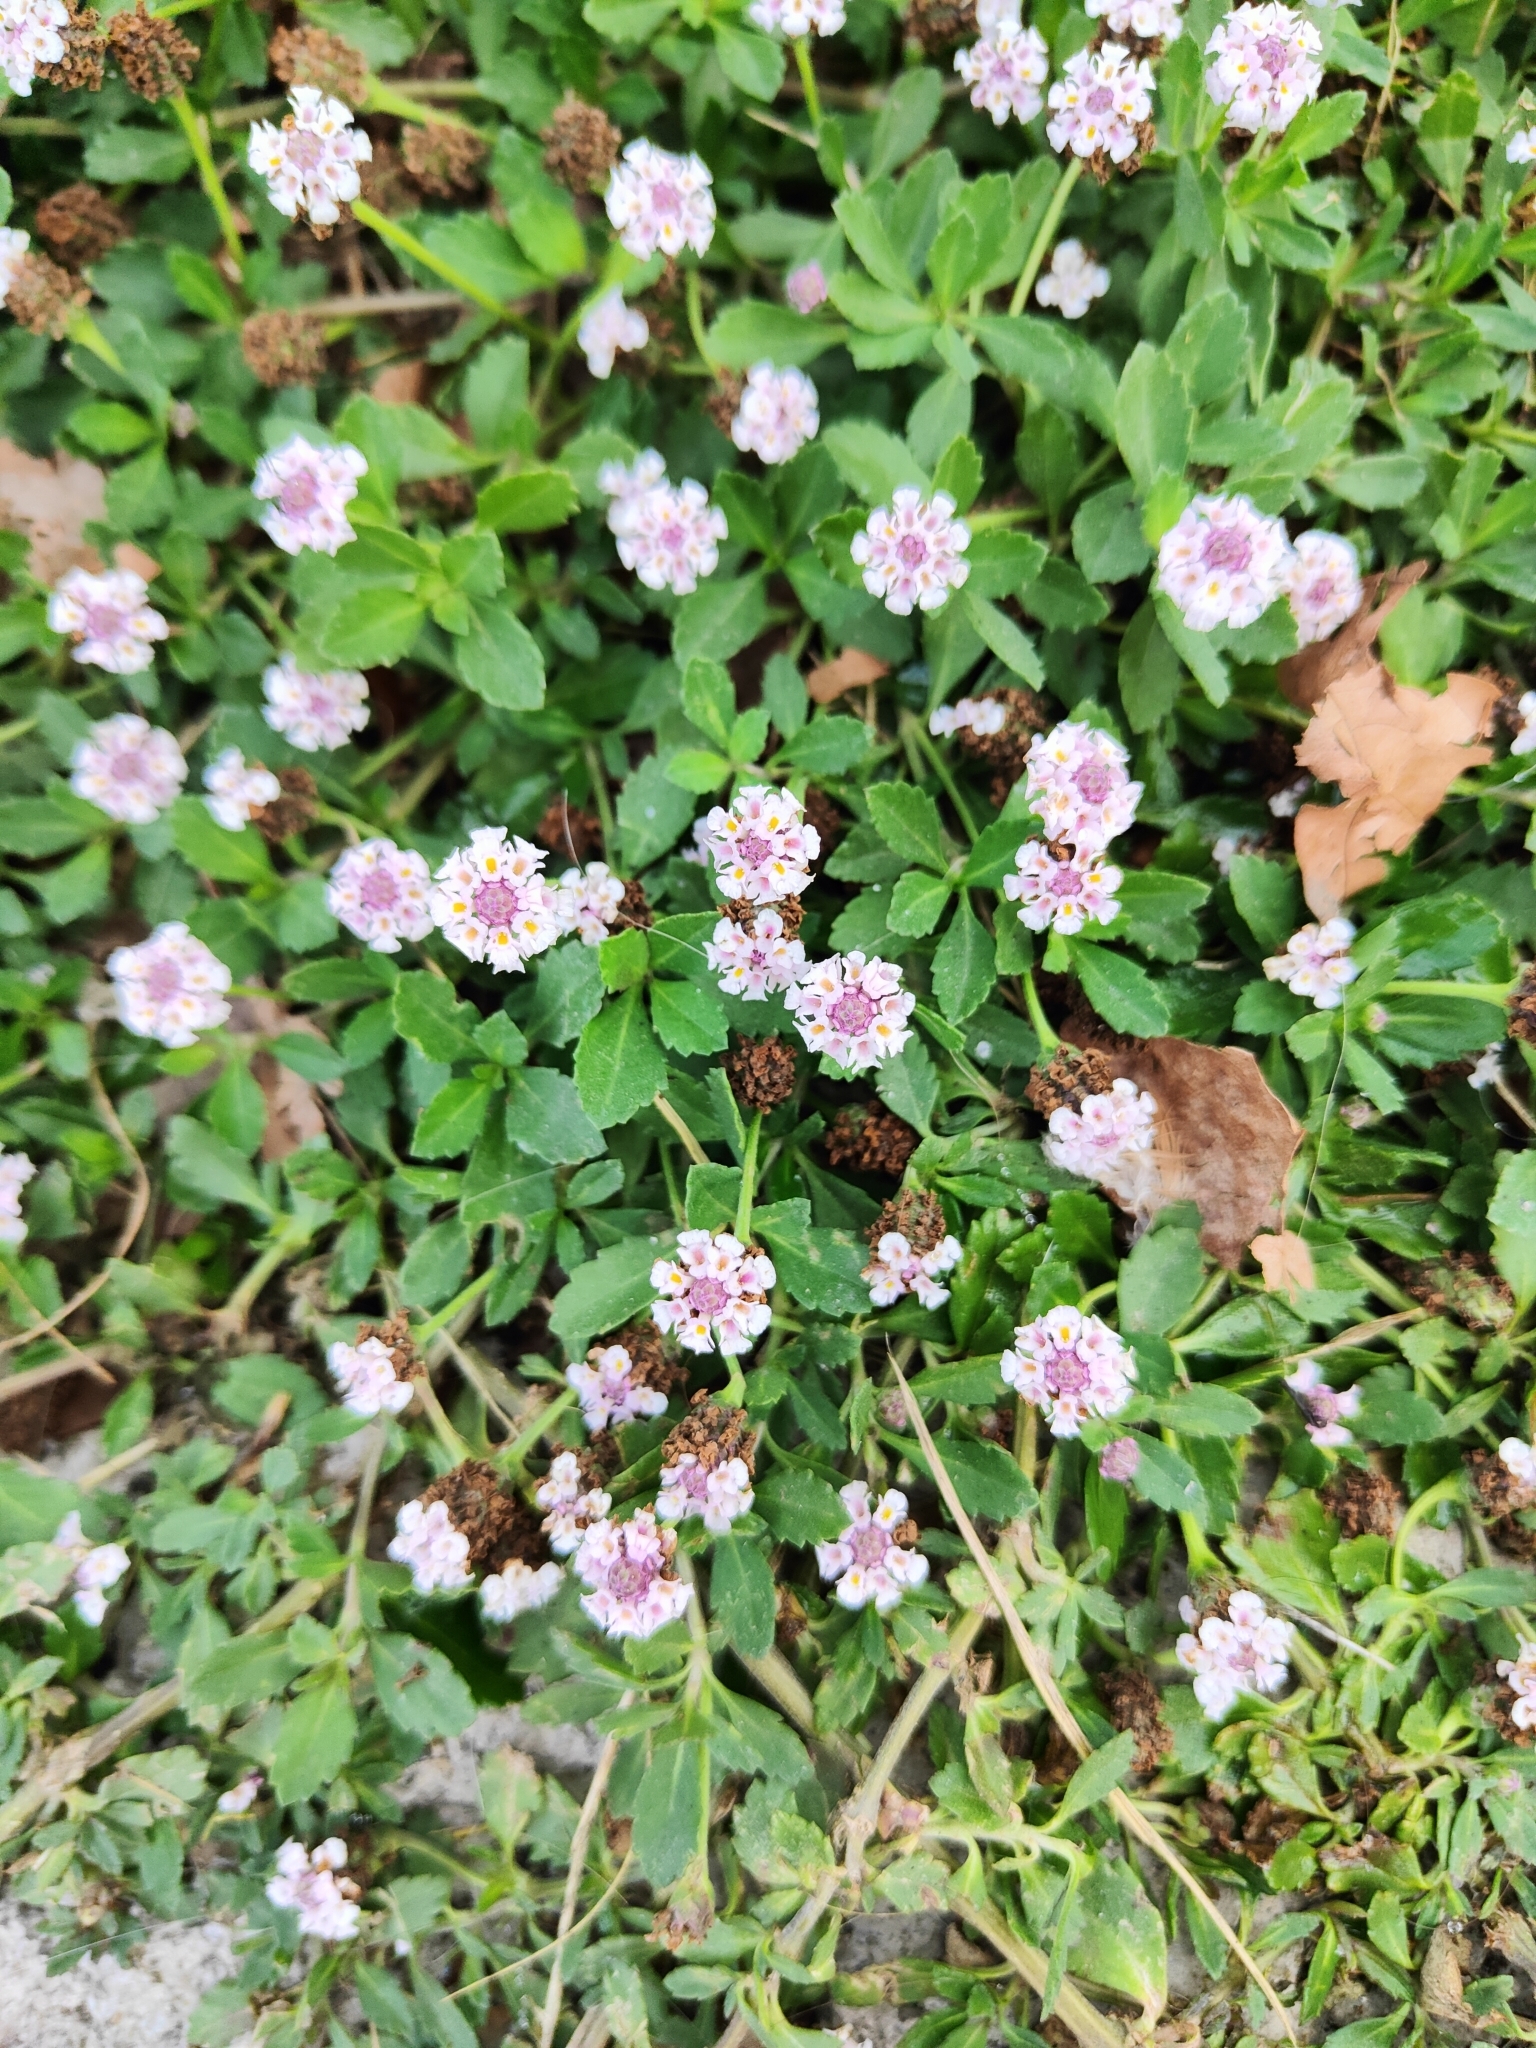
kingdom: Plantae
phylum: Tracheophyta
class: Magnoliopsida
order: Lamiales
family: Verbenaceae
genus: Phyla
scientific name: Phyla nodiflora
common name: Frogfruit
